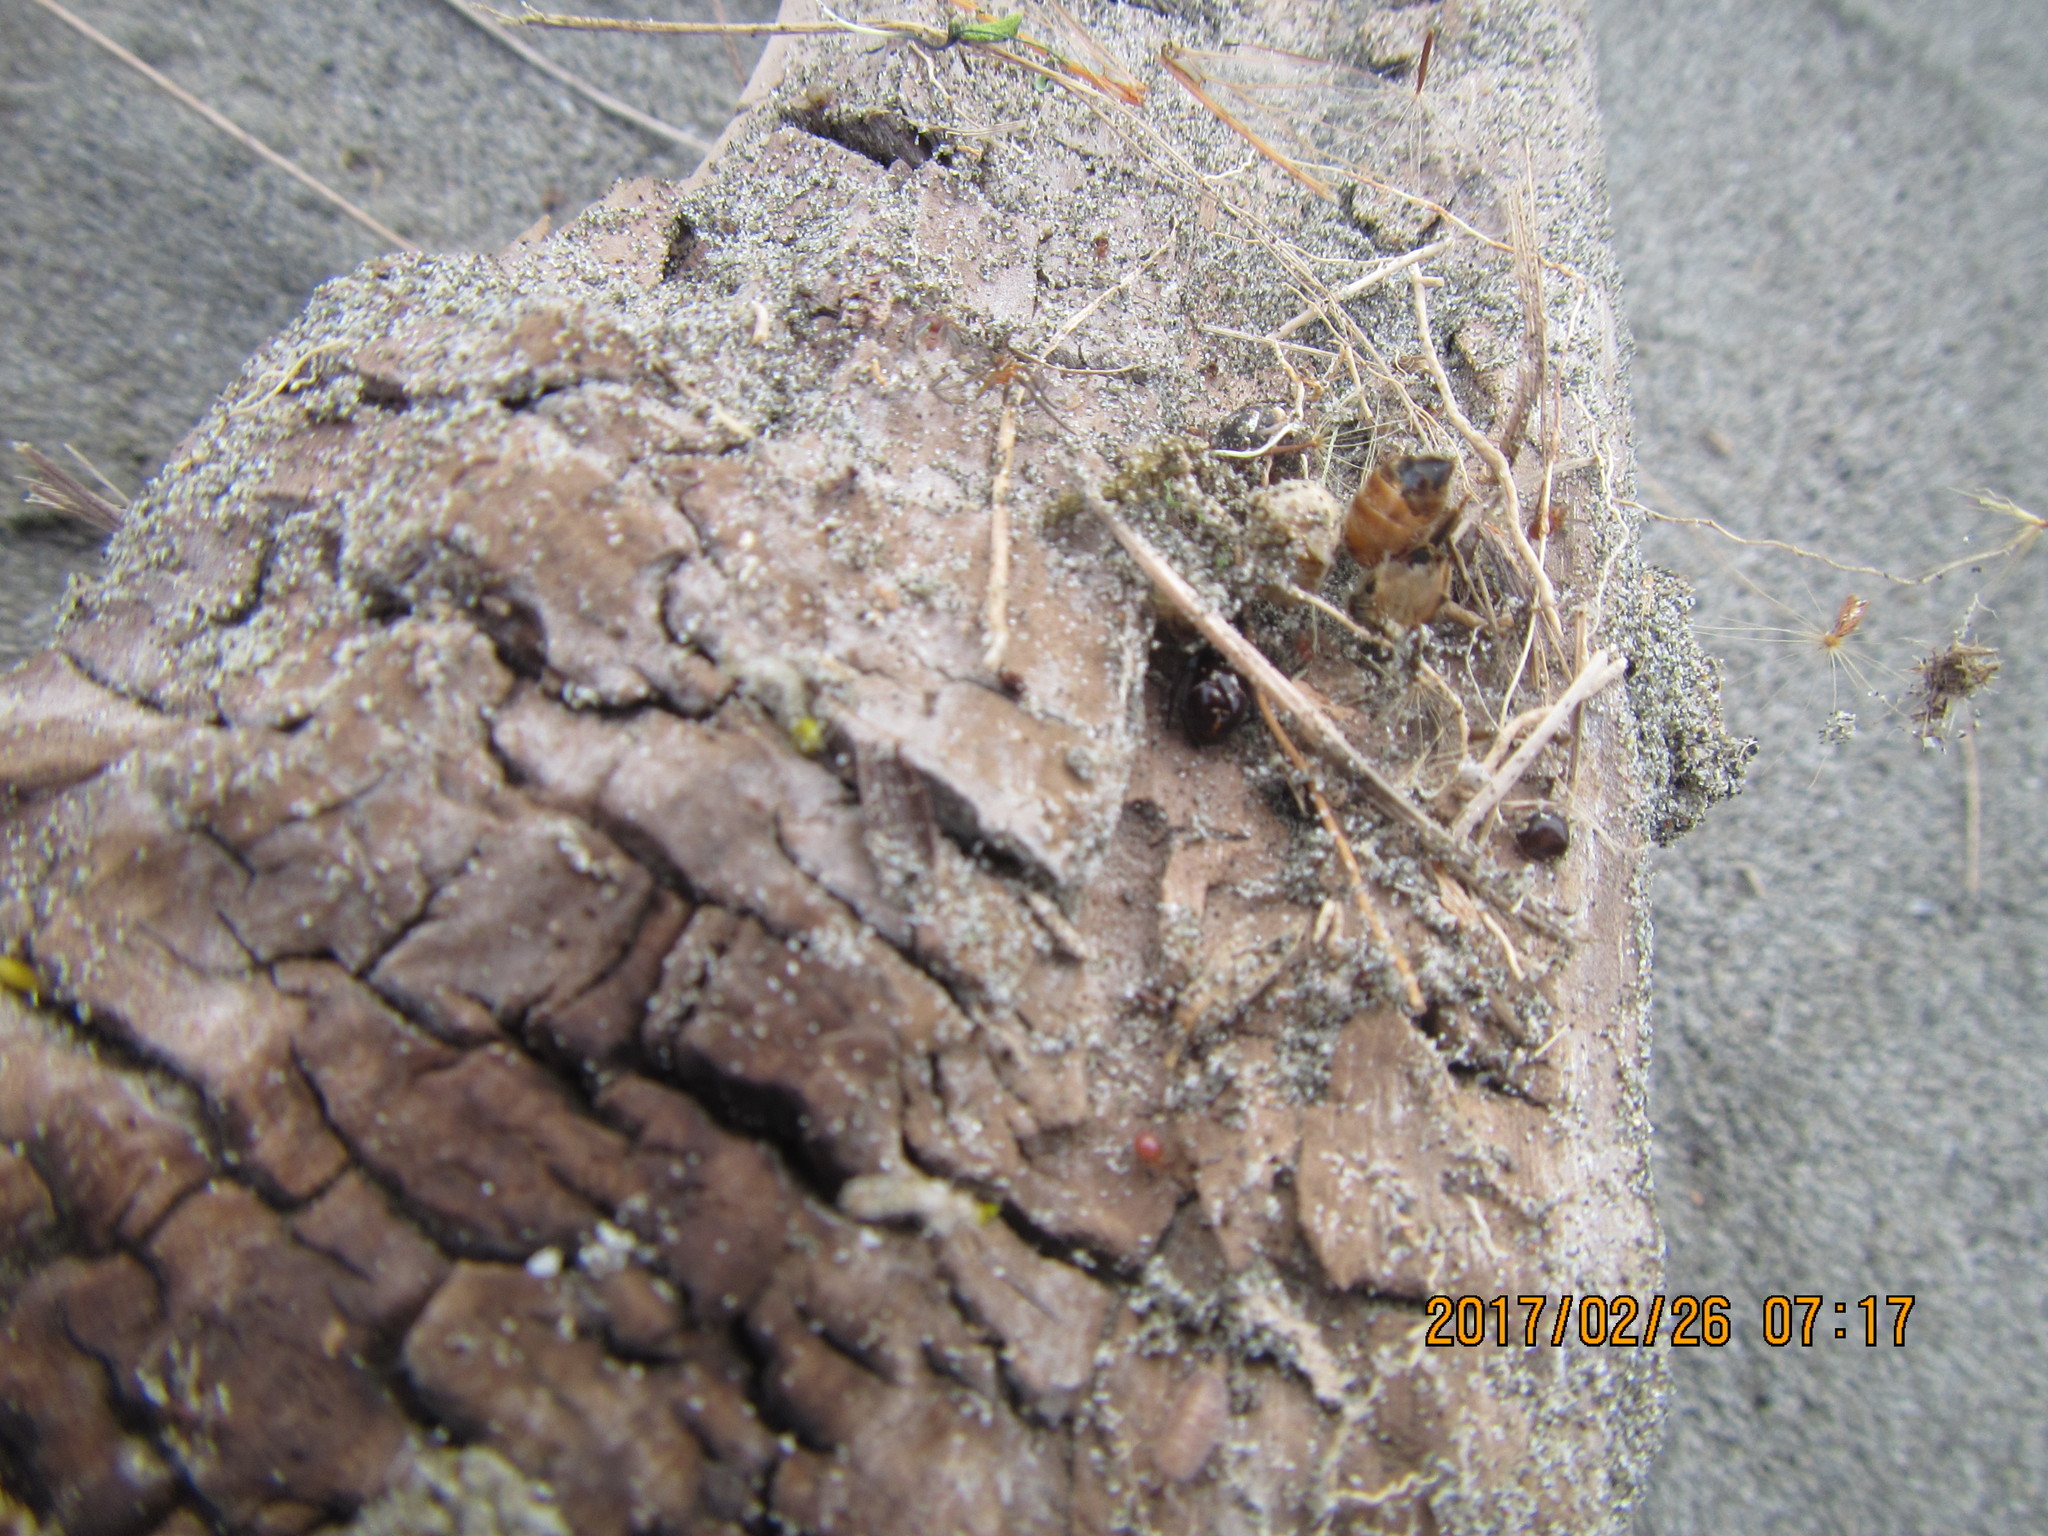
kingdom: Animalia
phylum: Arthropoda
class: Arachnida
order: Araneae
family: Theridiidae
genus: Steatoda
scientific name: Steatoda capensis
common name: Cobweb weaver
